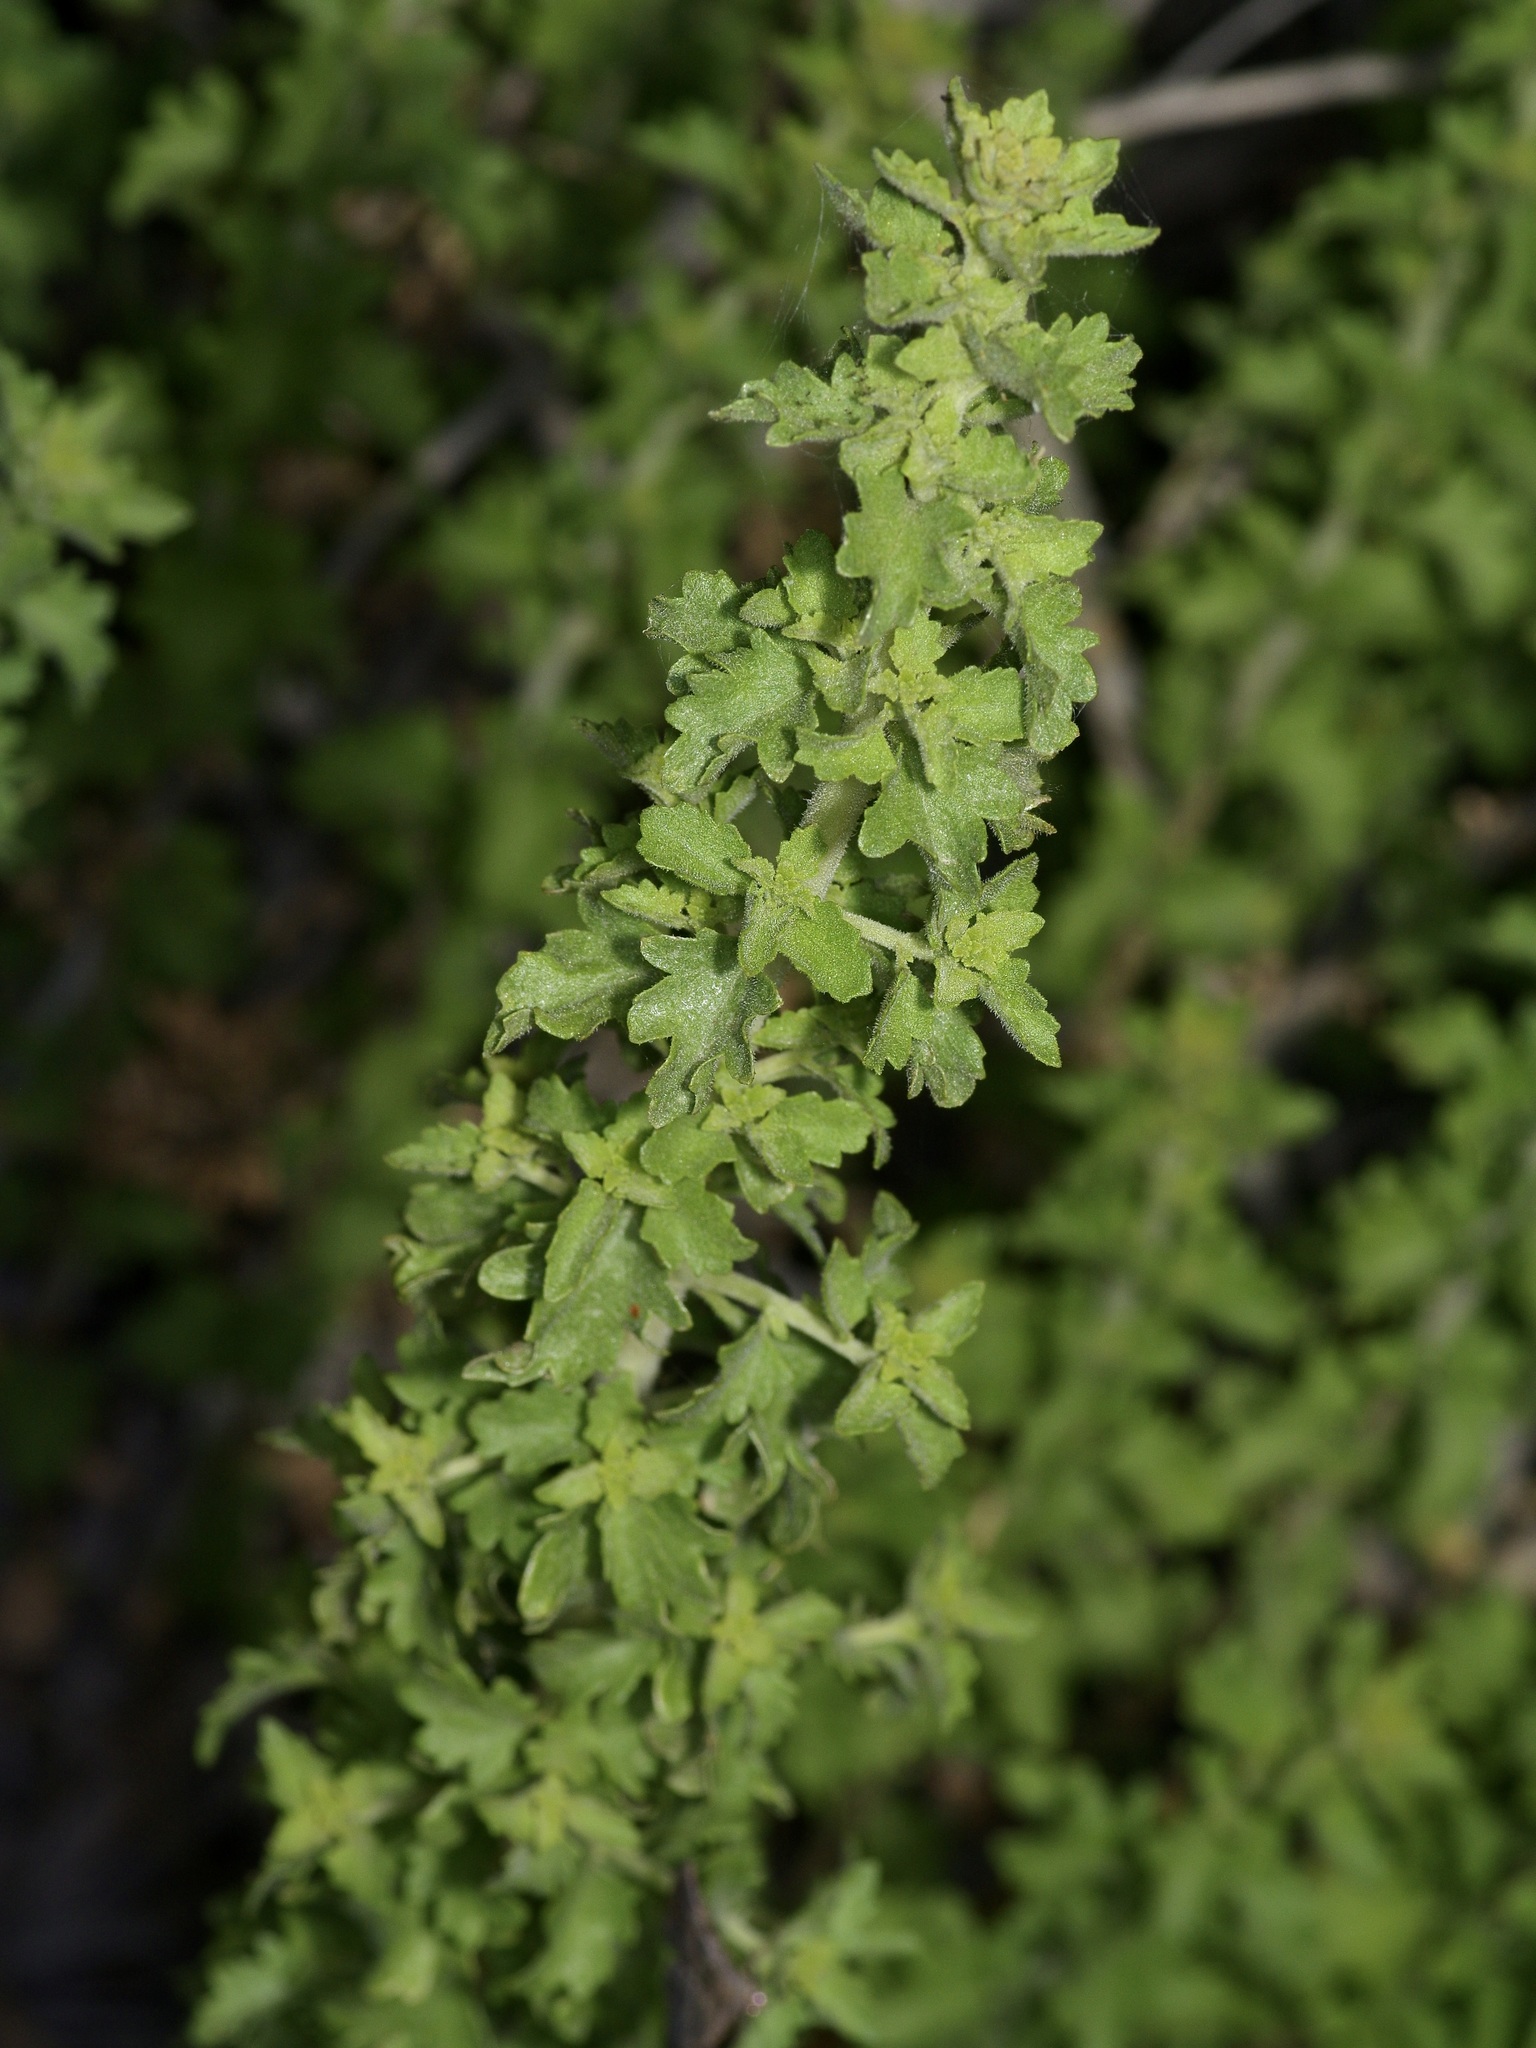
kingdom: Plantae
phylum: Tracheophyta
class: Magnoliopsida
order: Asterales
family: Asteraceae
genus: Brickellia
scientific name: Brickellia laciniata
